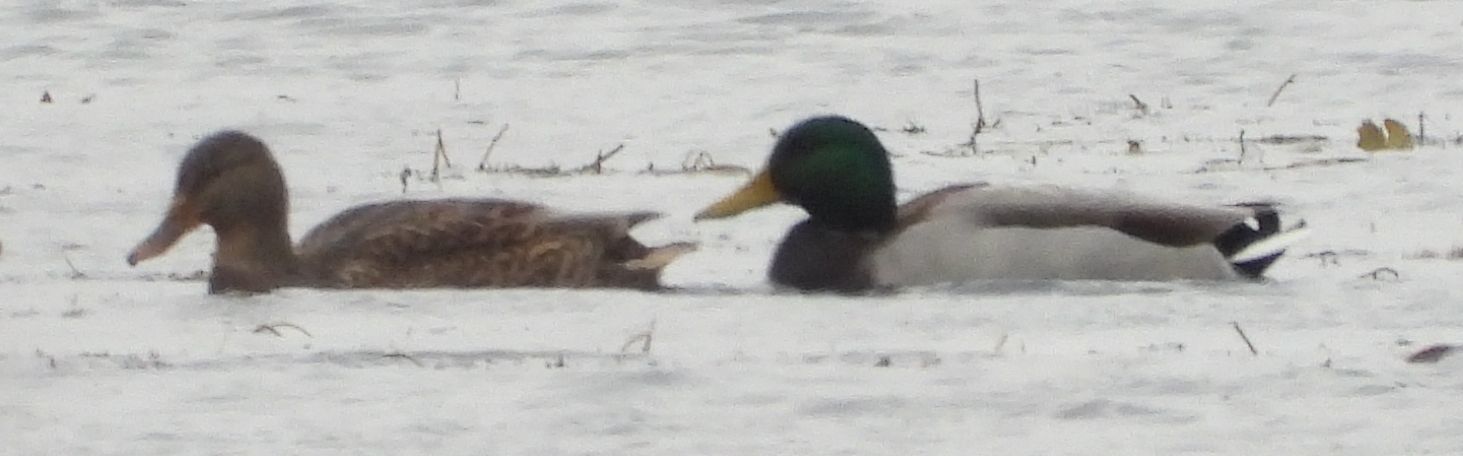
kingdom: Animalia
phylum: Chordata
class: Aves
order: Anseriformes
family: Anatidae
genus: Anas
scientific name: Anas platyrhynchos
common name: Mallard
